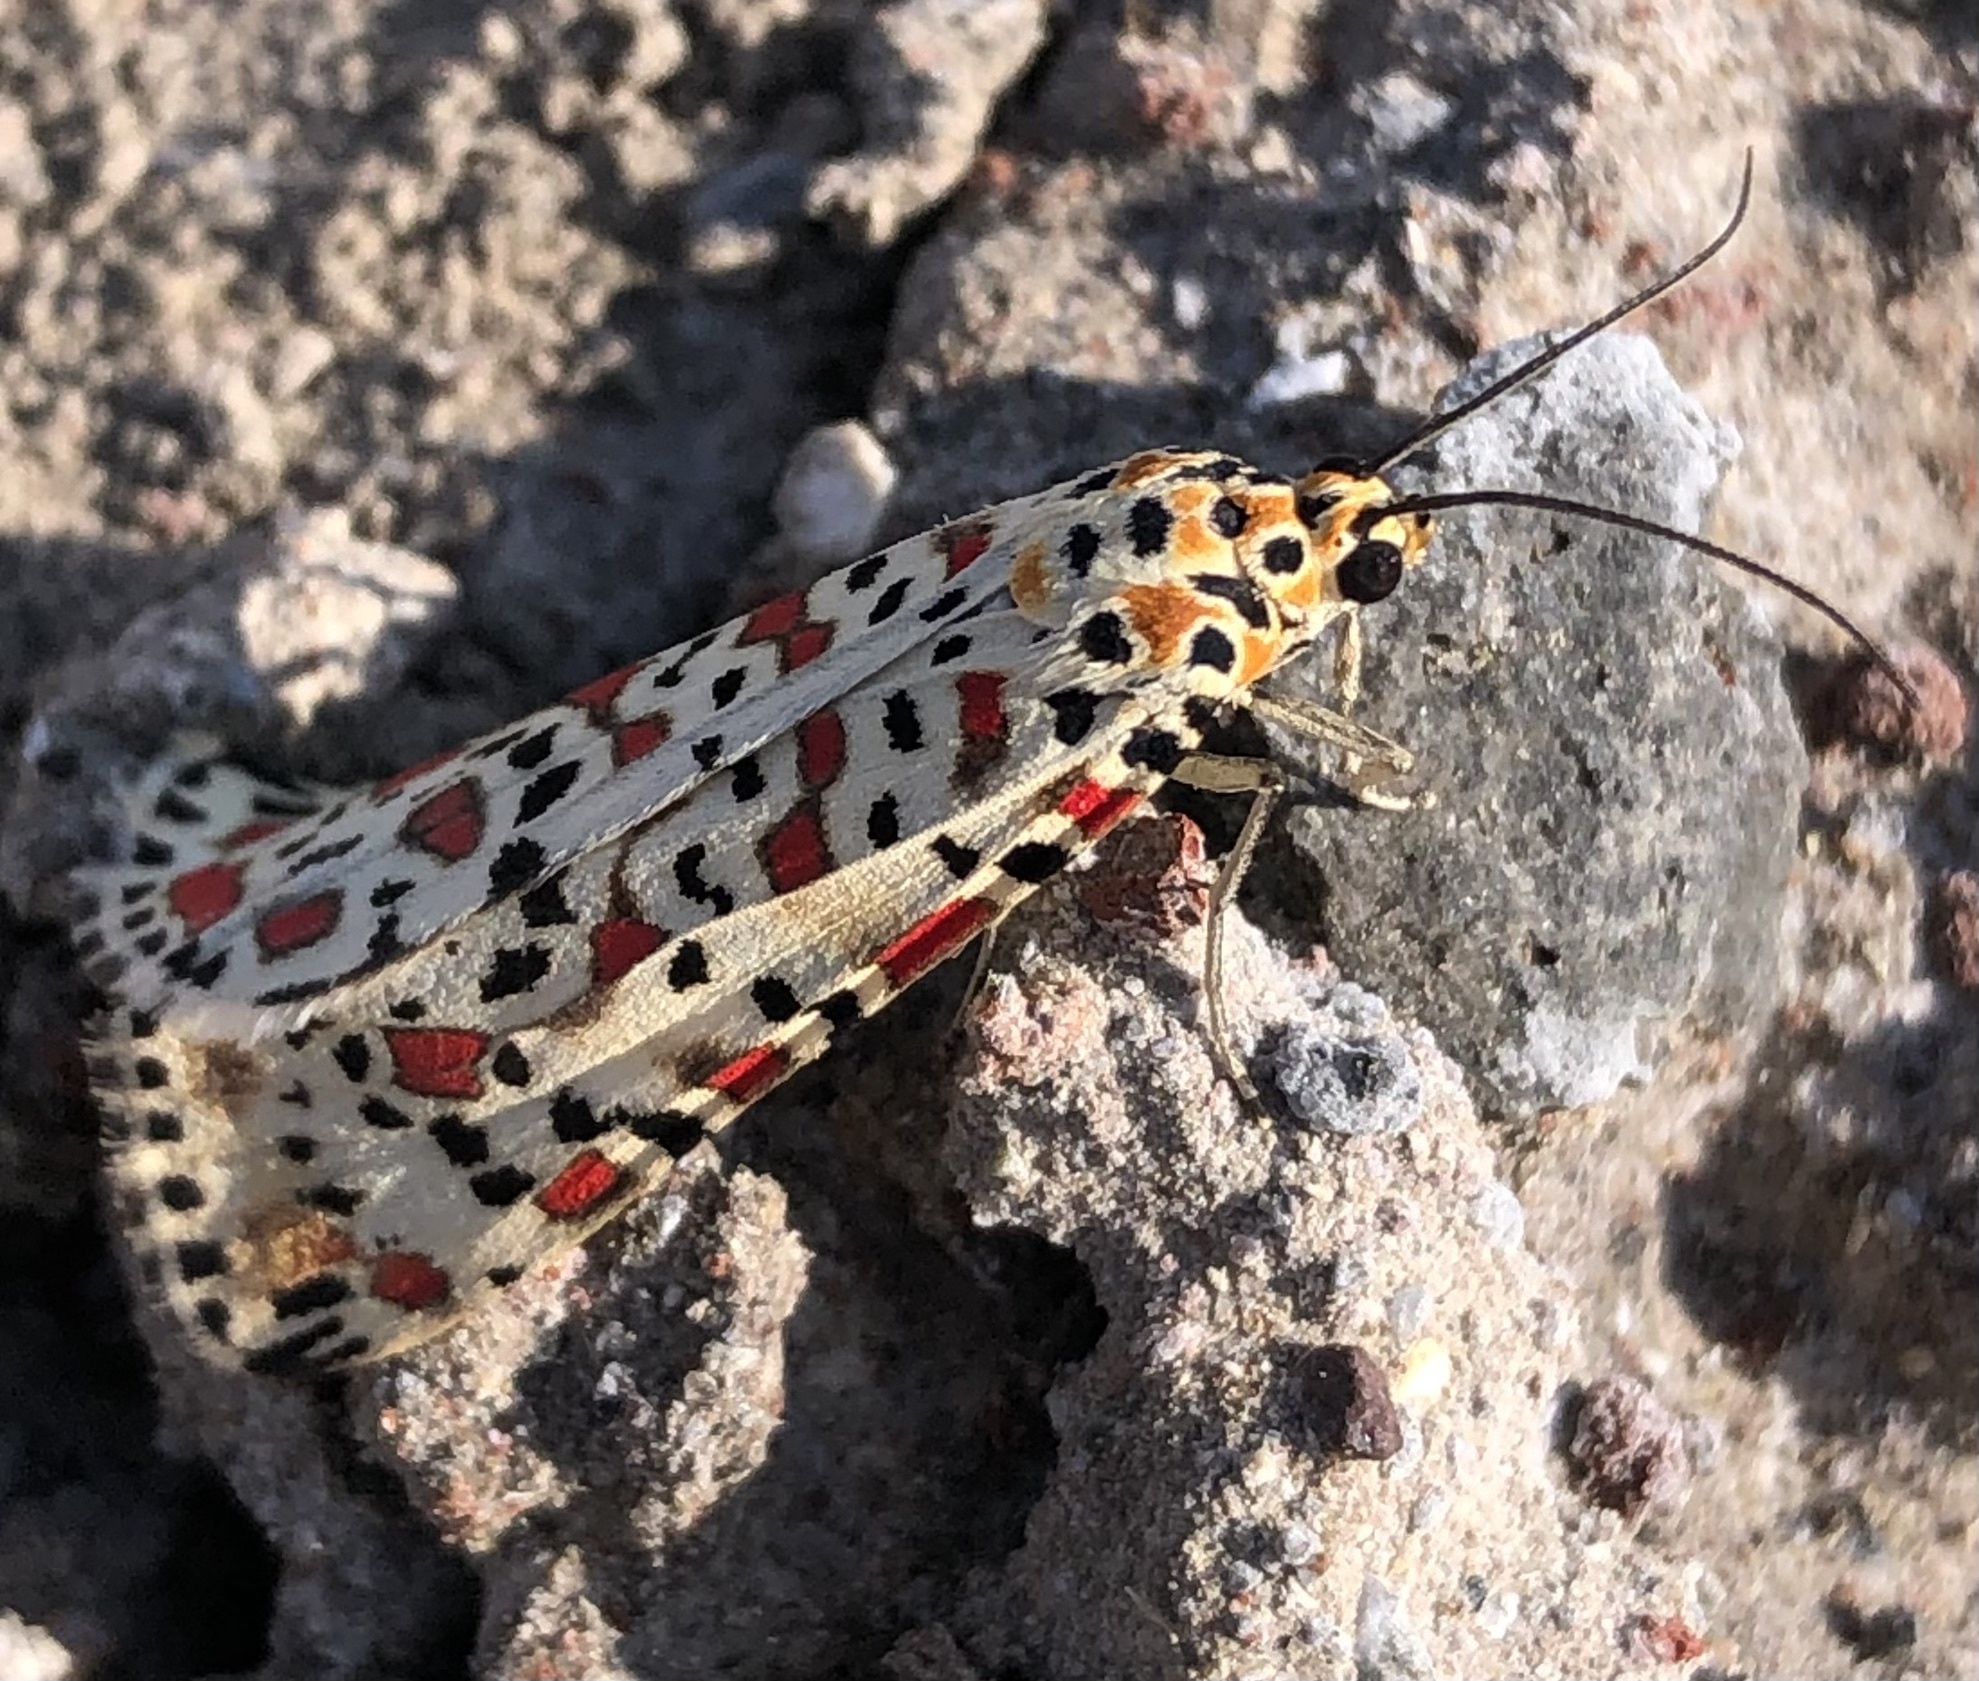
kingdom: Animalia
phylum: Arthropoda
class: Insecta
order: Lepidoptera
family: Erebidae
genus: Utetheisa
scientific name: Utetheisa pulchella
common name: Crimson speckled
